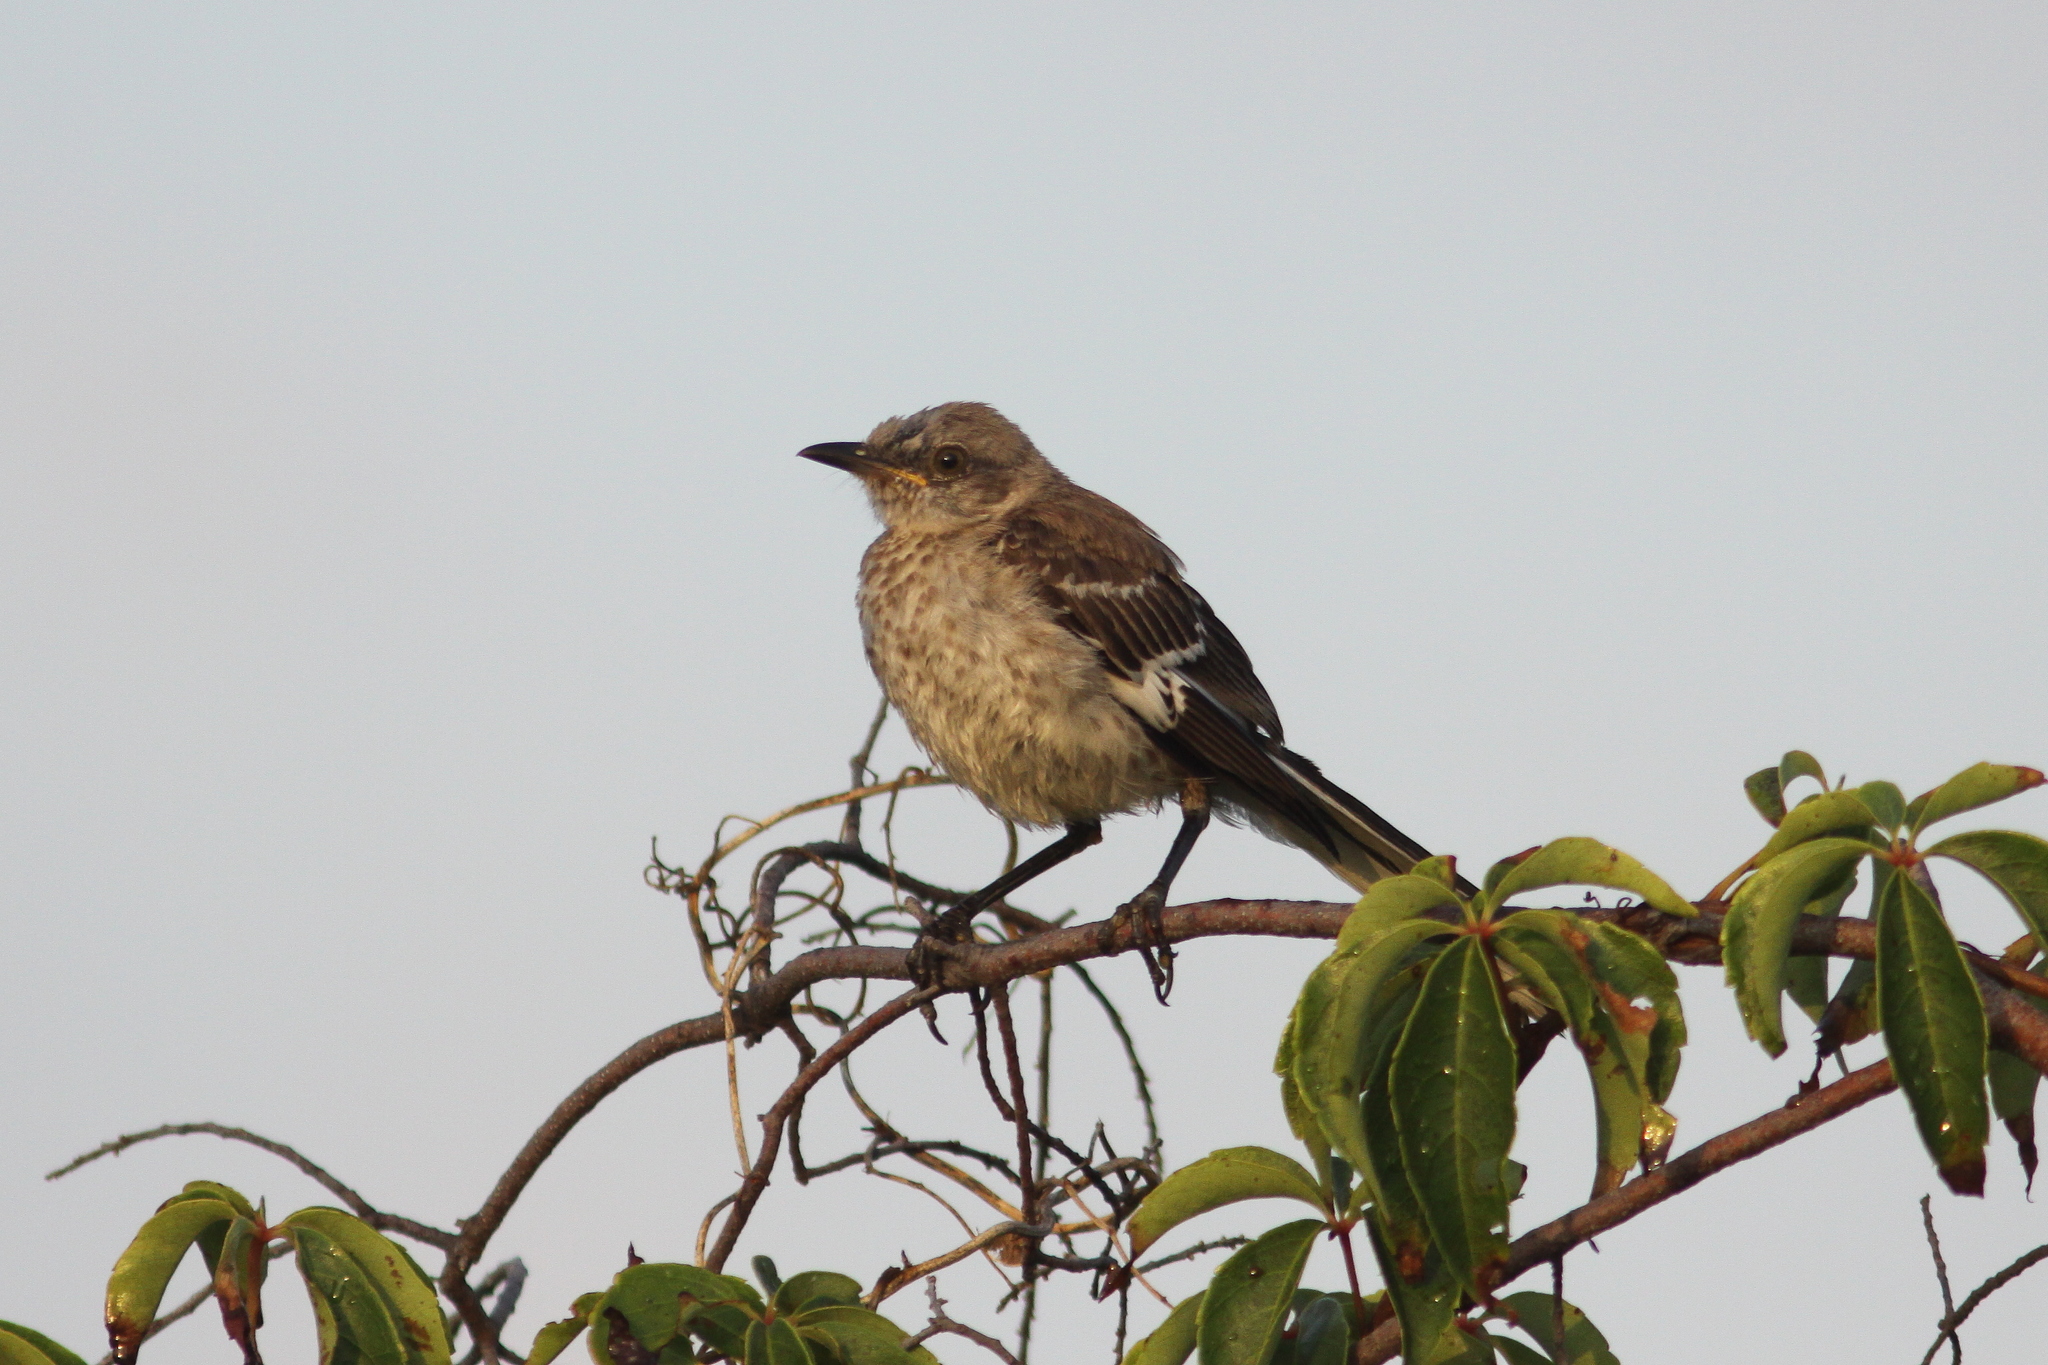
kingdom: Animalia
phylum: Chordata
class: Aves
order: Passeriformes
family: Mimidae
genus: Mimus
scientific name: Mimus polyglottos
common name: Northern mockingbird
